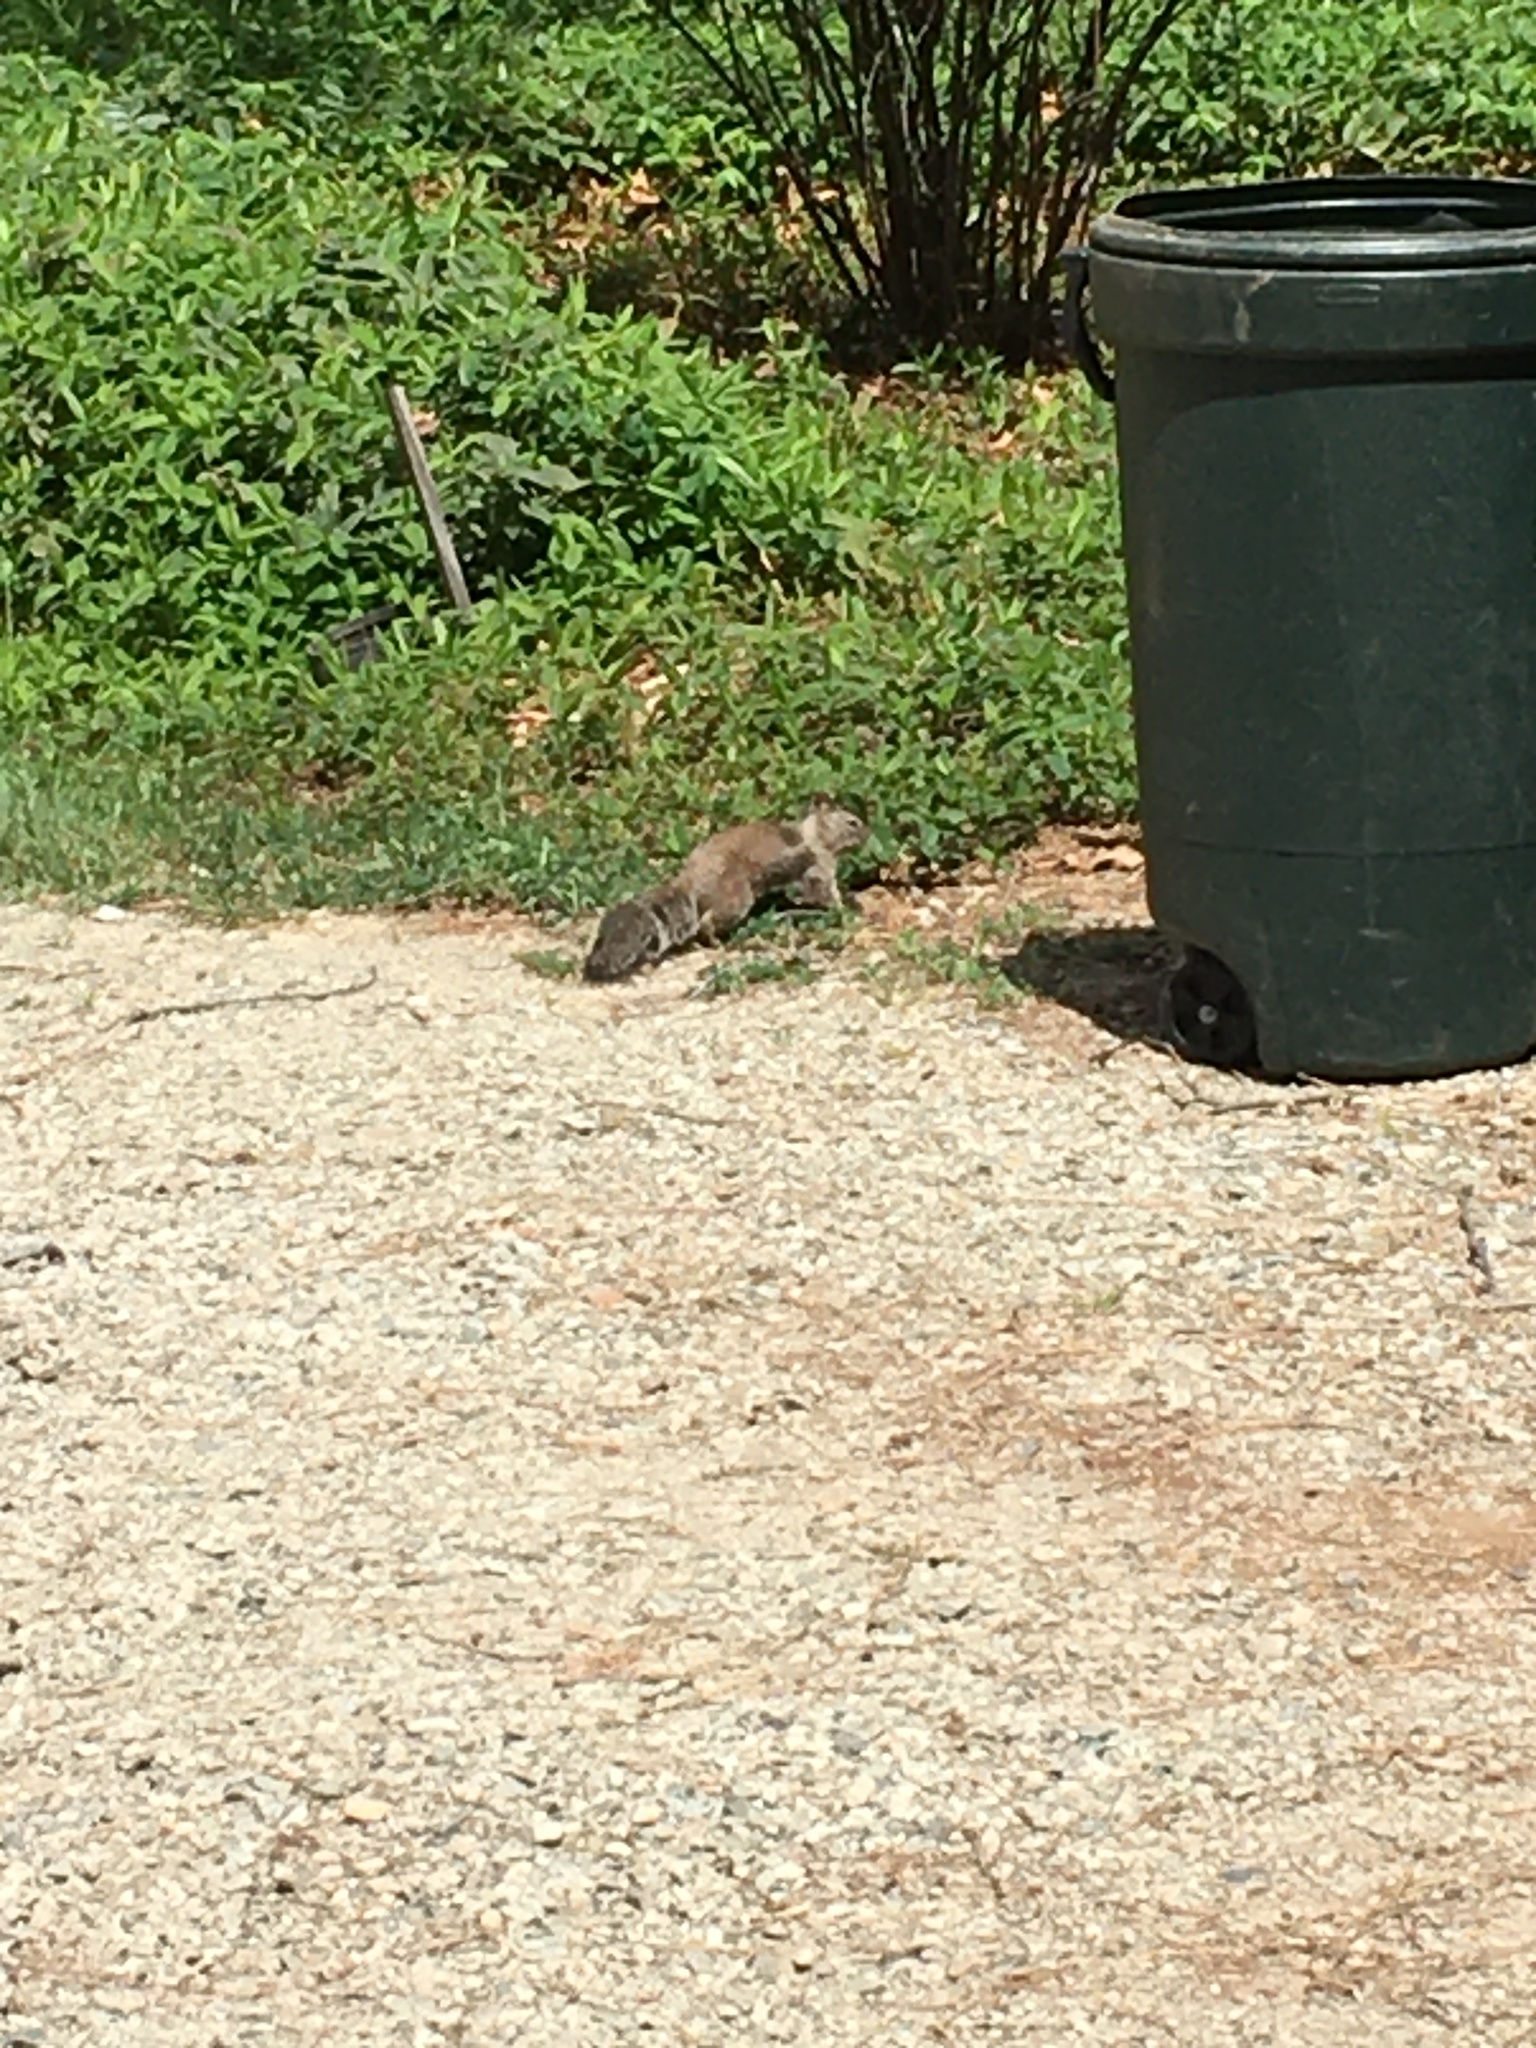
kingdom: Animalia
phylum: Chordata
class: Mammalia
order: Rodentia
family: Sciuridae
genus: Otospermophilus
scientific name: Otospermophilus beecheyi
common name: California ground squirrel
